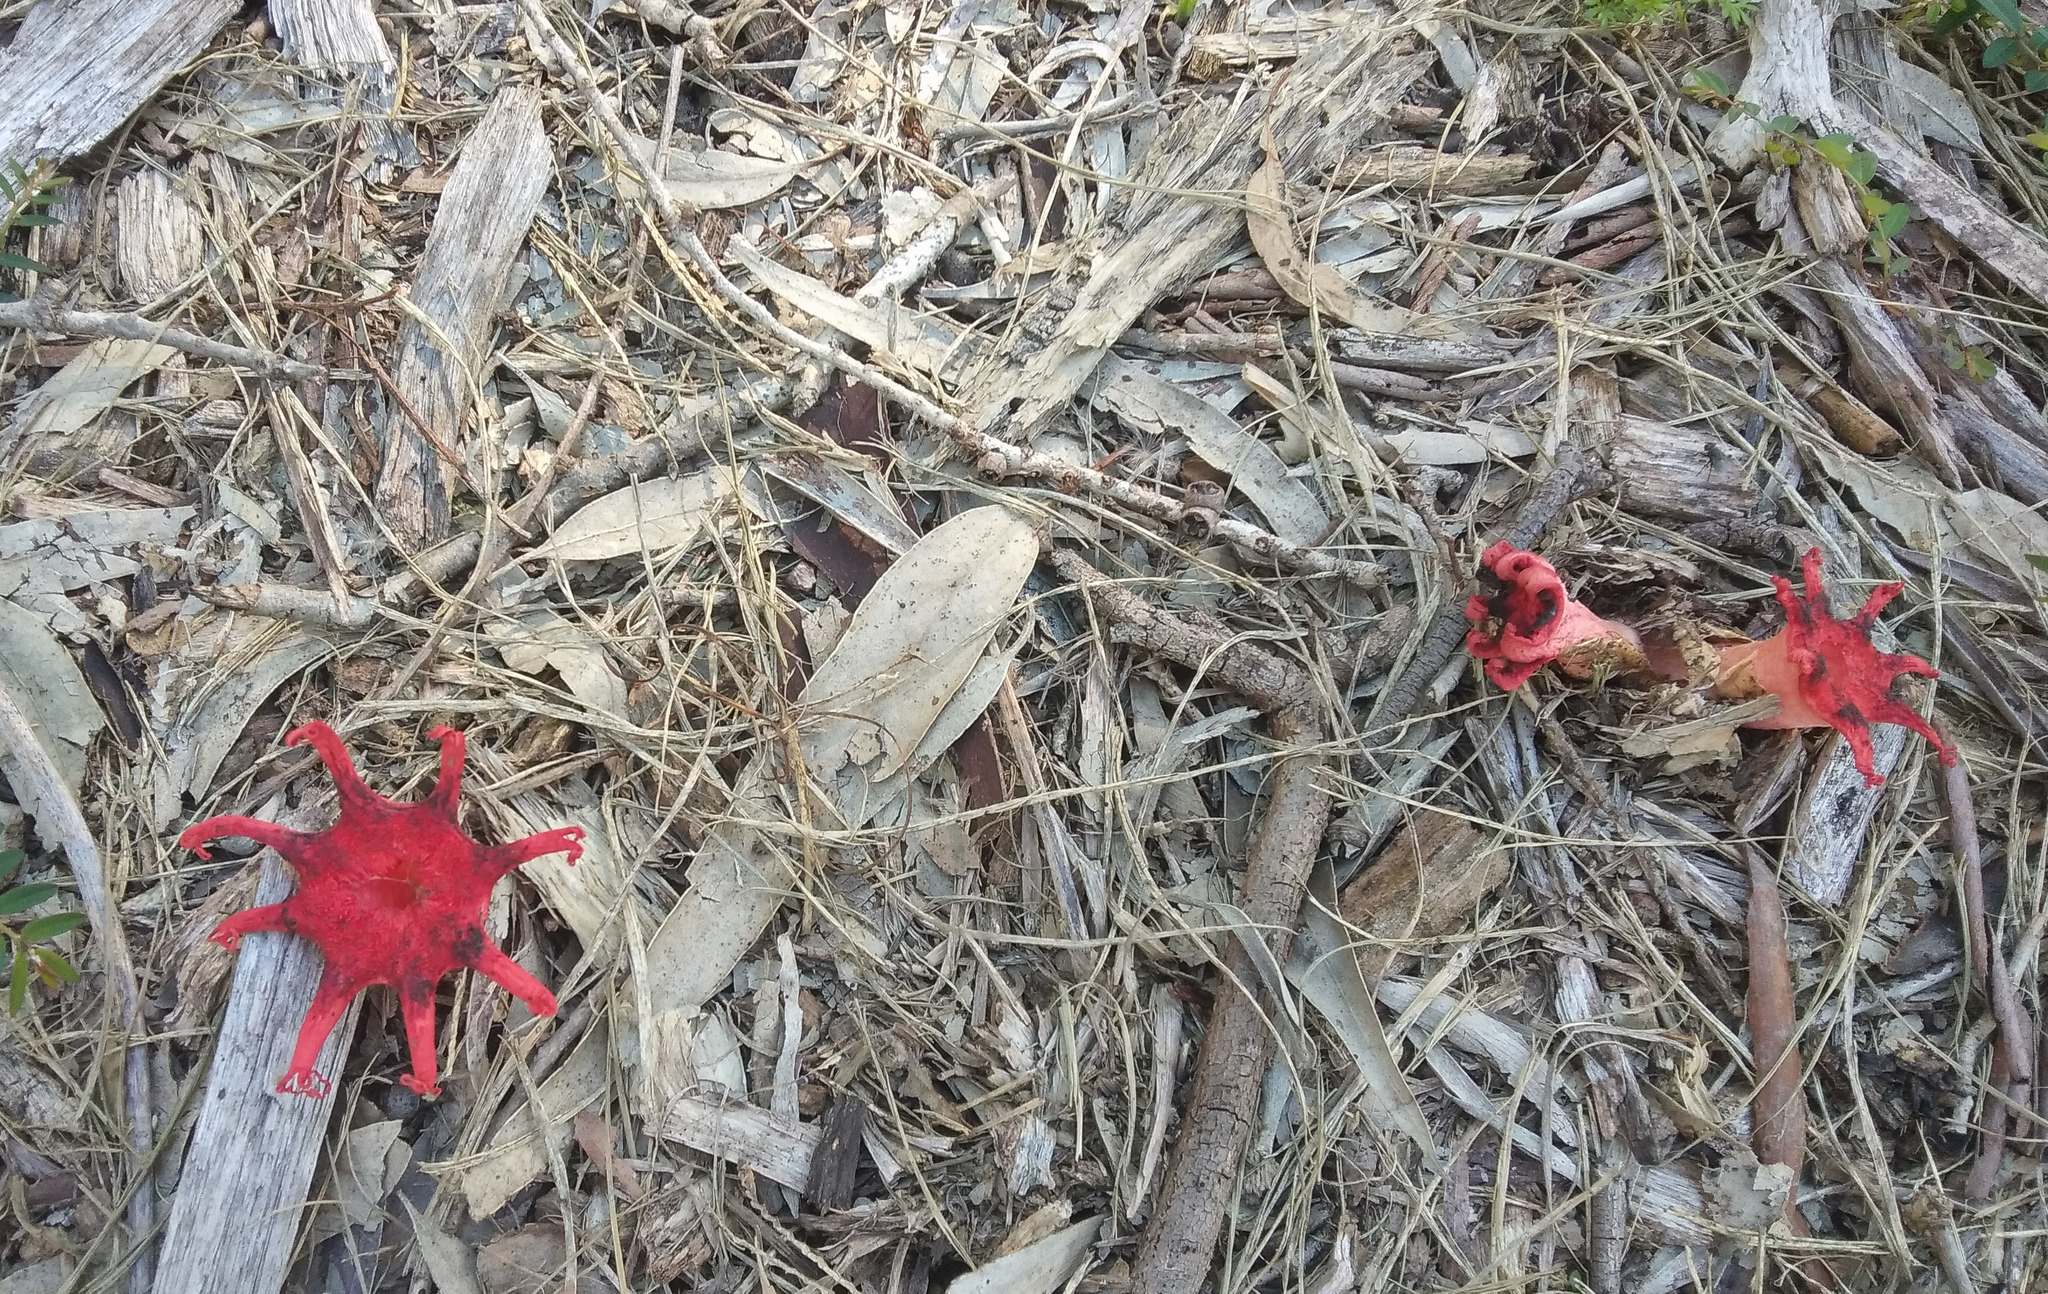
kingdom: Fungi
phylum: Basidiomycota
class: Agaricomycetes
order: Phallales
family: Phallaceae
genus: Aseroe
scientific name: Aseroe rubra
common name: Starfish fungus
